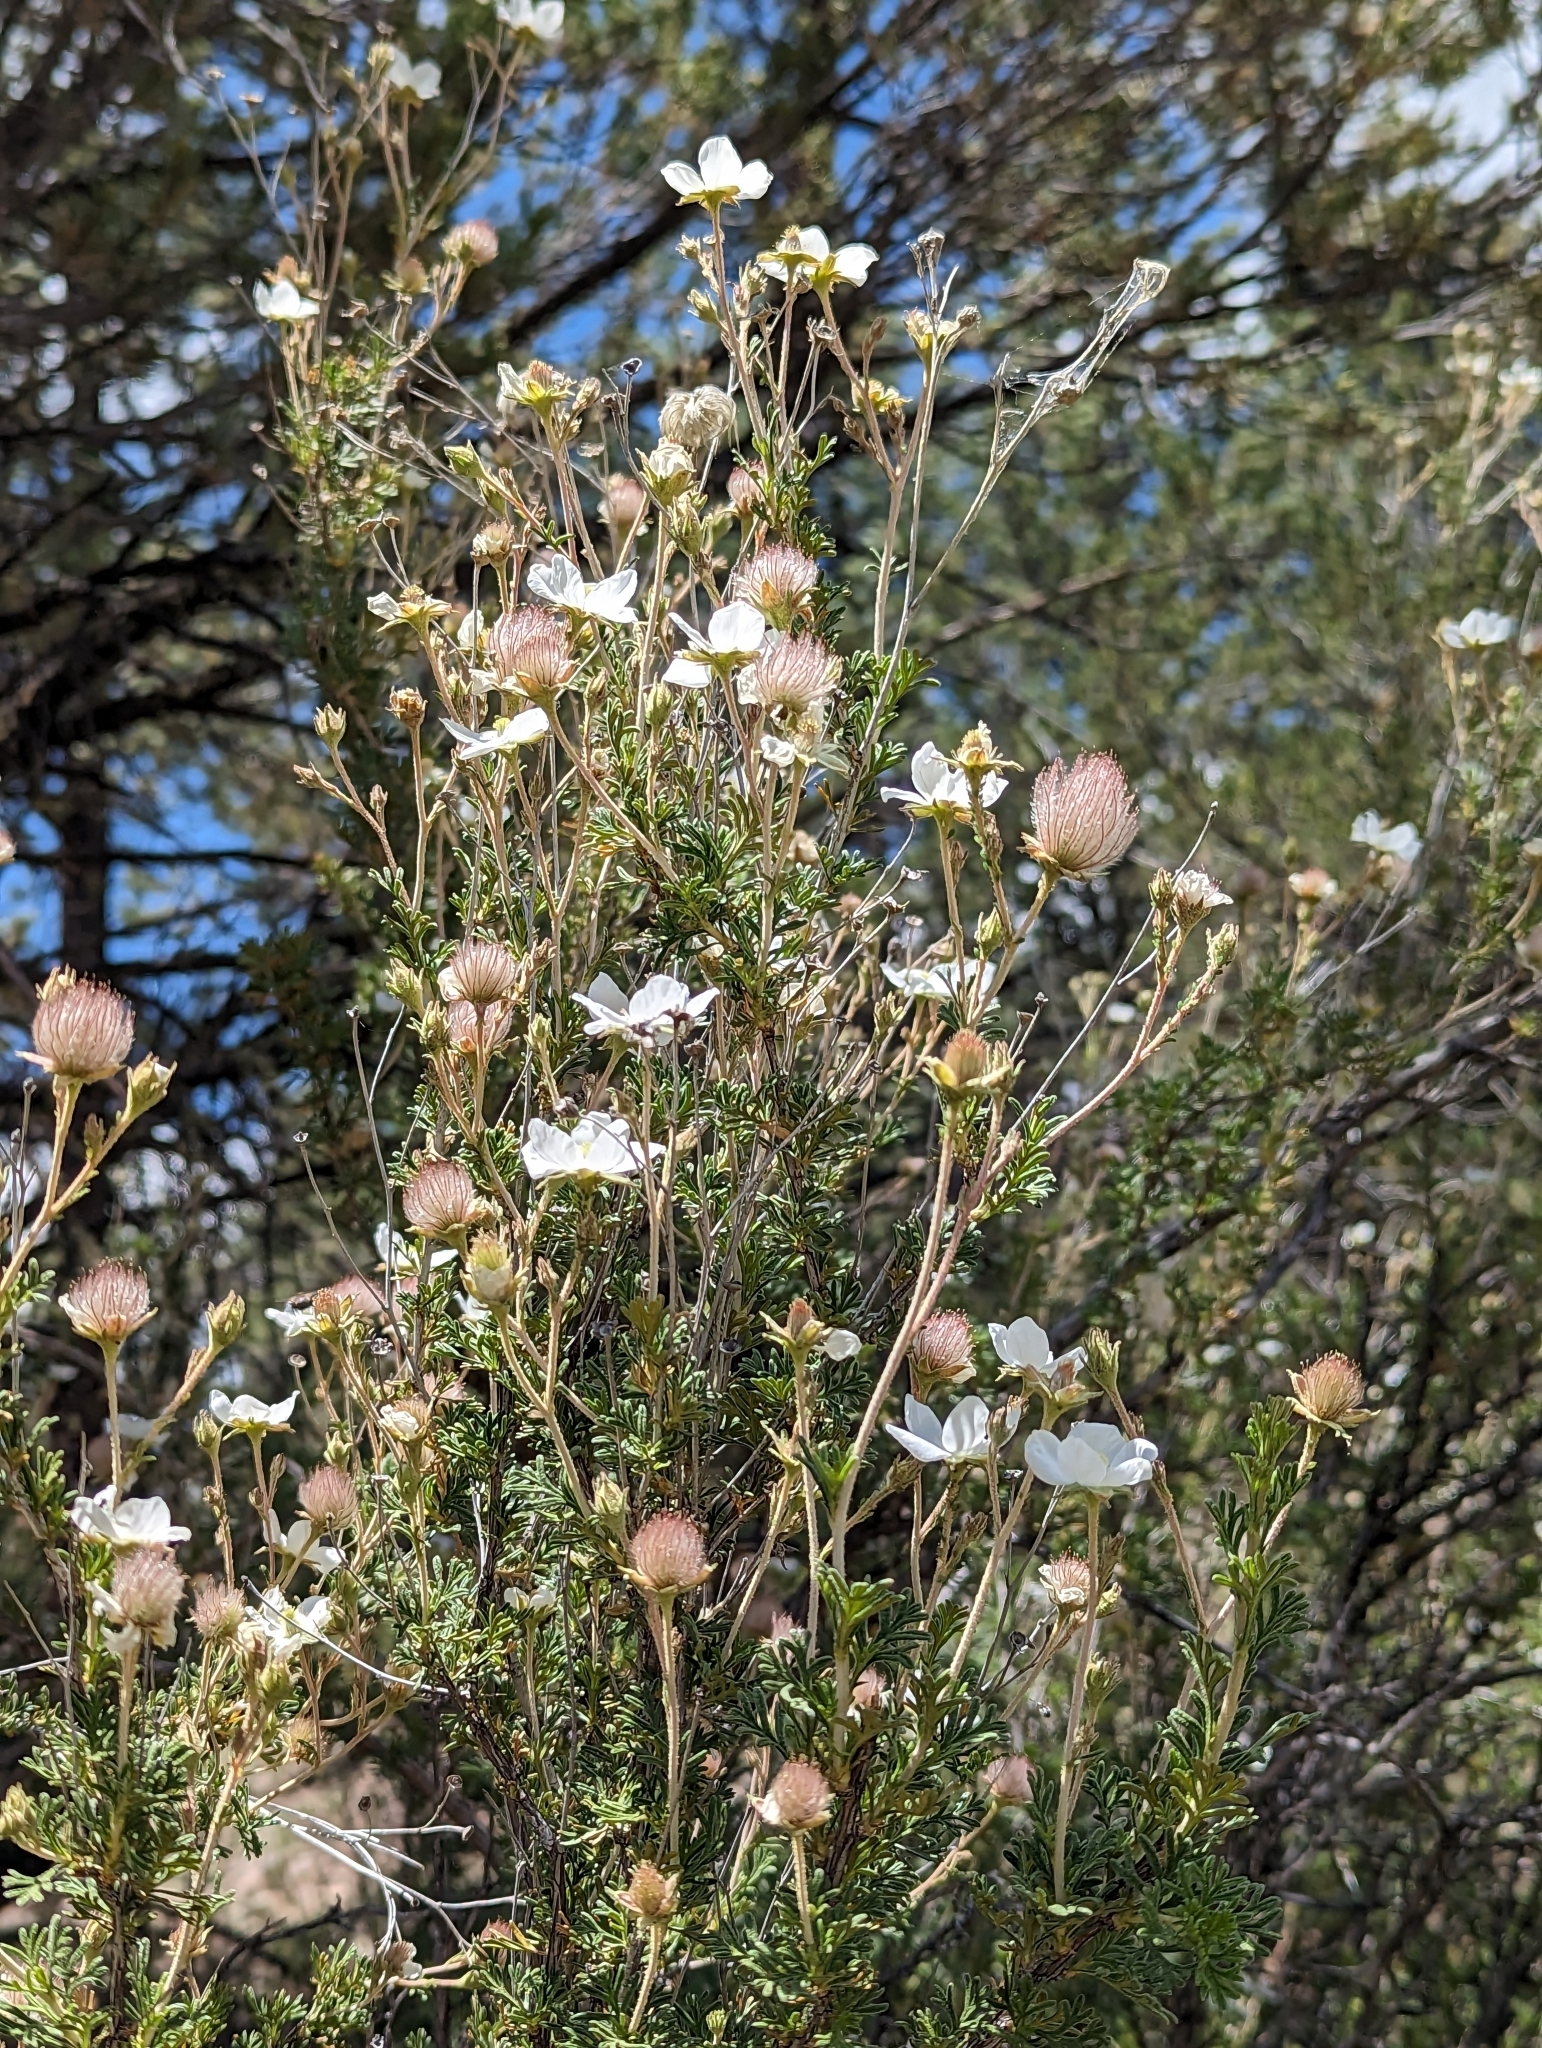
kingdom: Plantae
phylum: Tracheophyta
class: Magnoliopsida
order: Rosales
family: Rosaceae
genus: Fallugia
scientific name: Fallugia paradoxa
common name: Apache-plume
